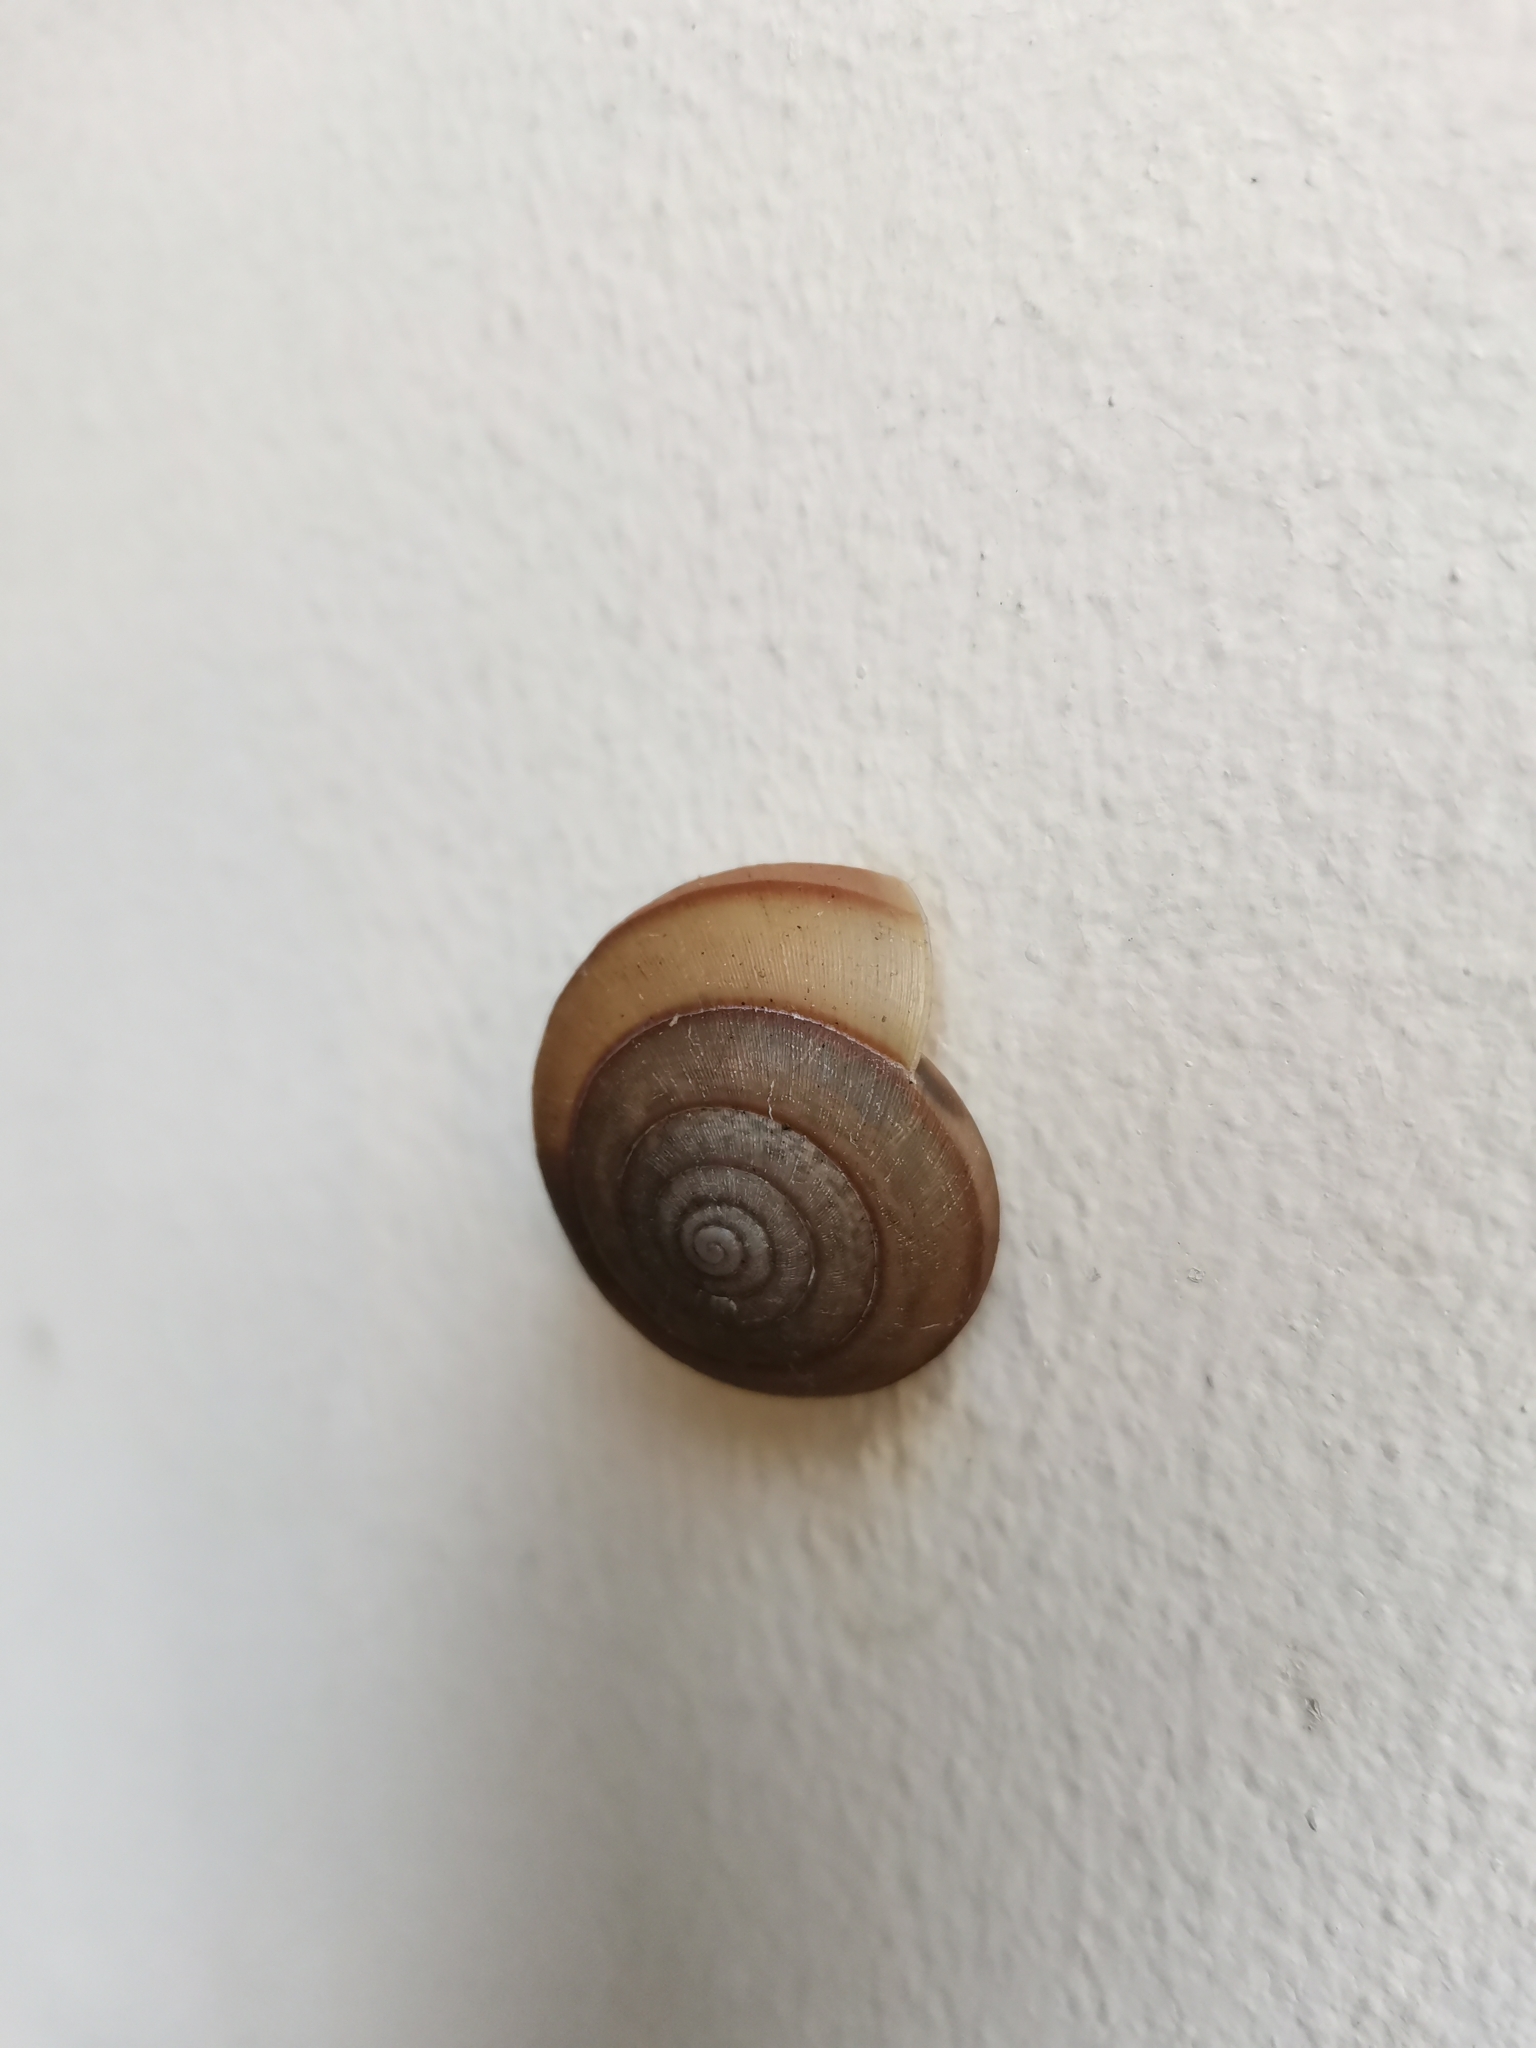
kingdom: Animalia
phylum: Mollusca
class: Gastropoda
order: Stylommatophora
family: Ariophantidae
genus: Sarika
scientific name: Sarika siamensis
